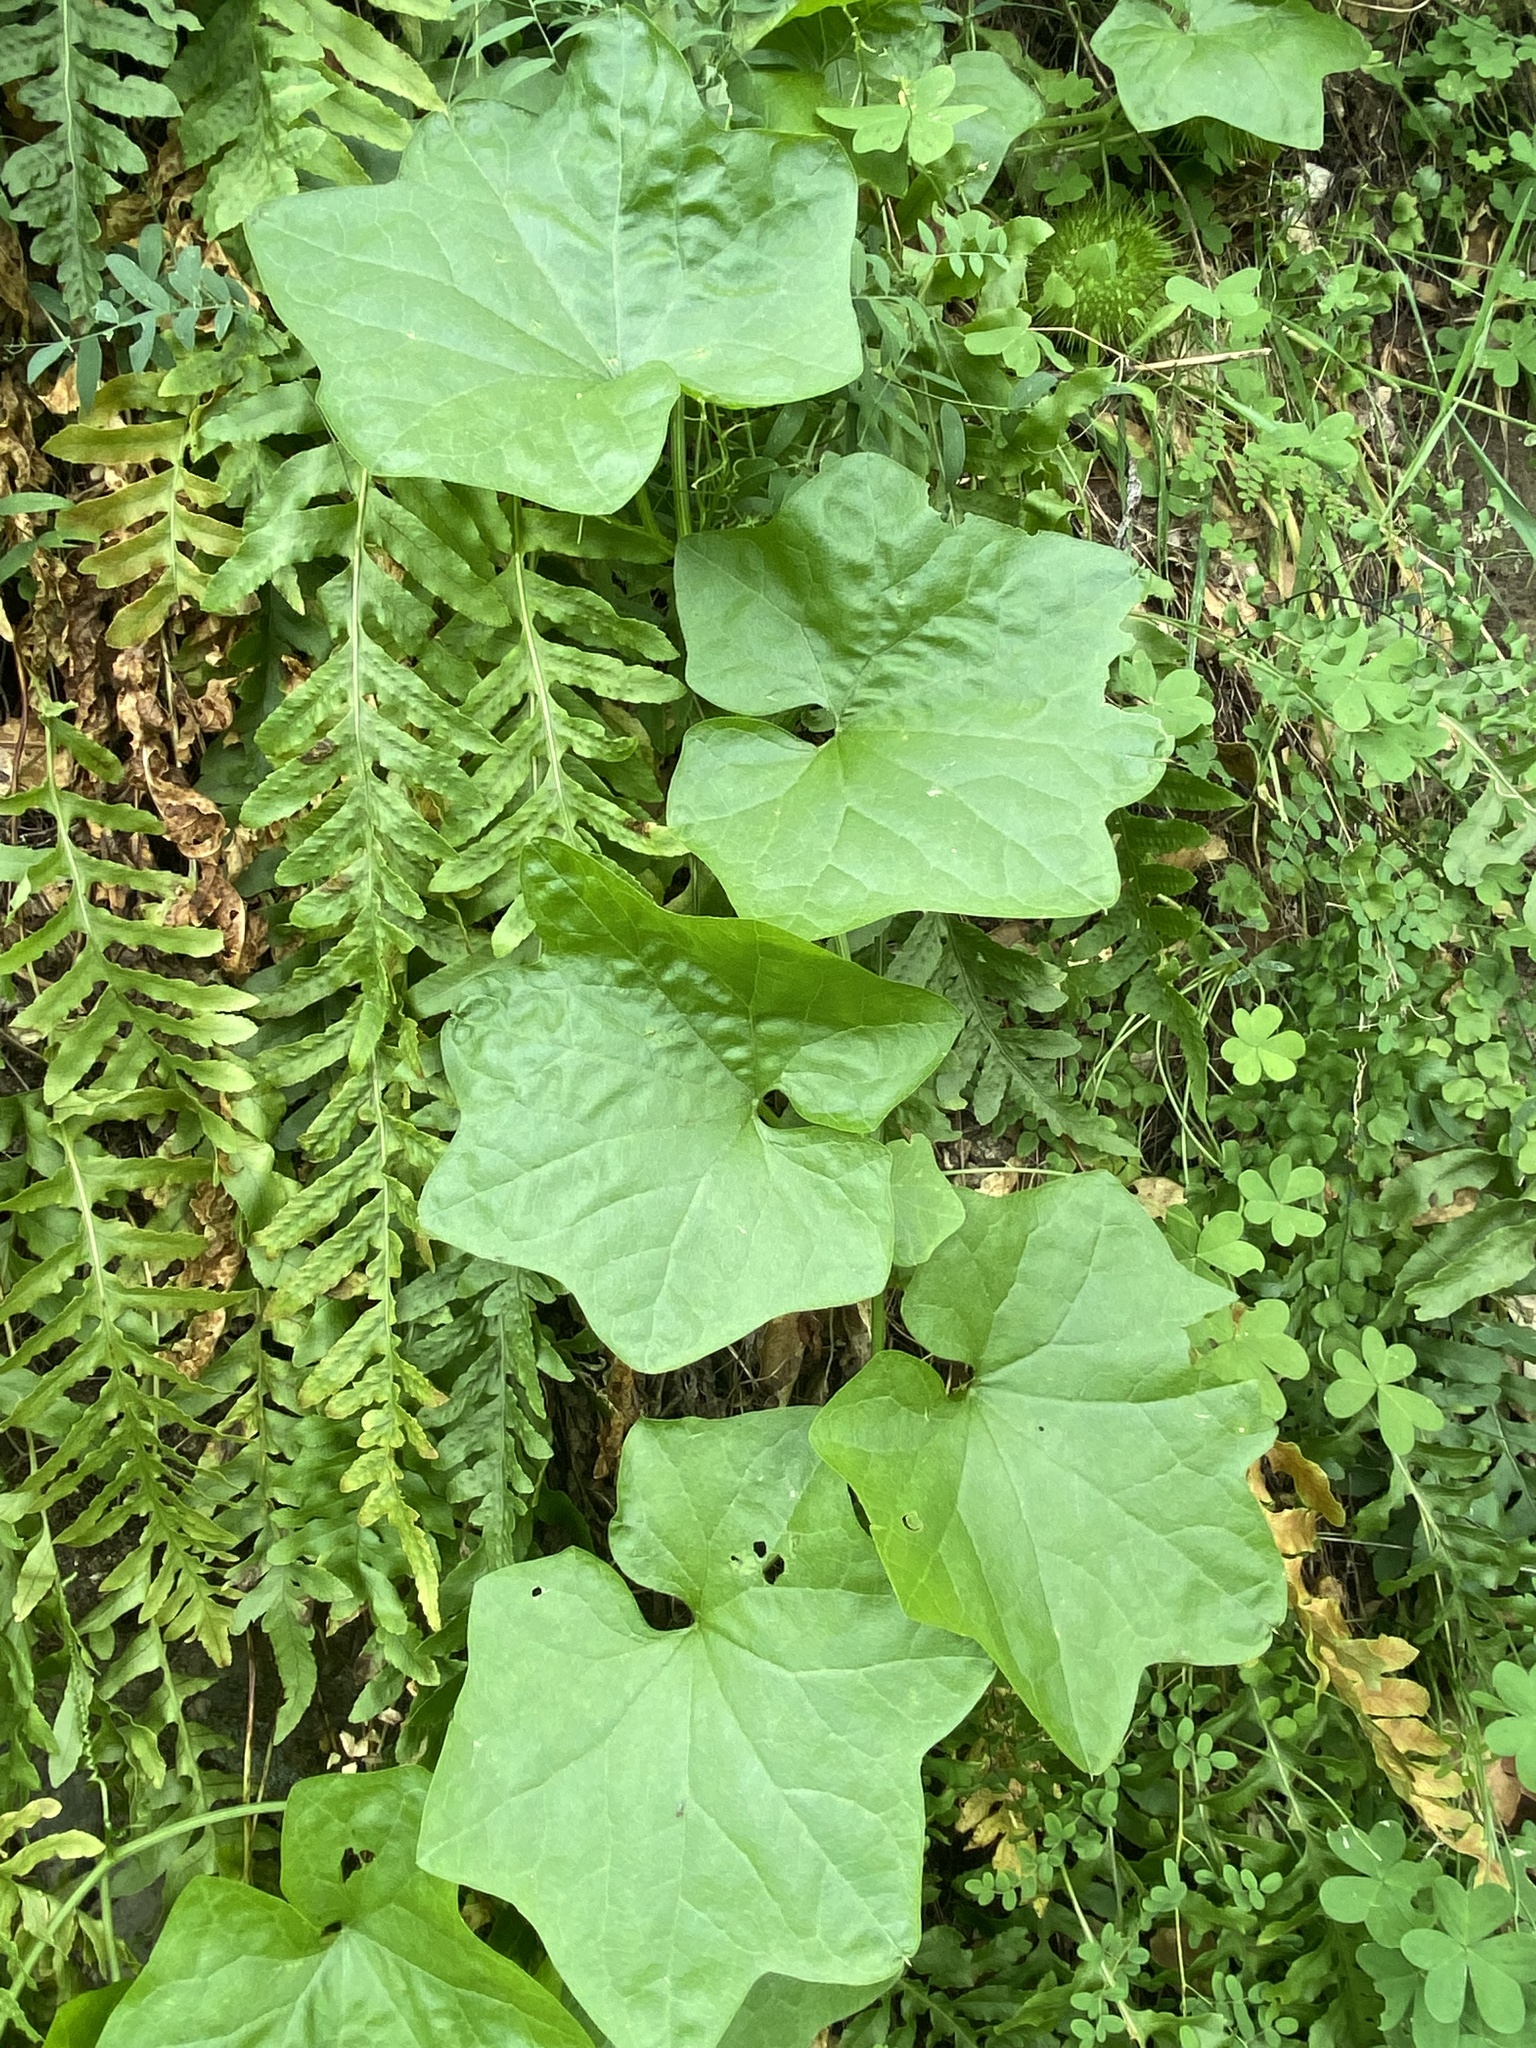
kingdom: Plantae
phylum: Tracheophyta
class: Magnoliopsida
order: Cucurbitales
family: Cucurbitaceae
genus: Marah
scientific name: Marah fabacea
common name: California manroot
